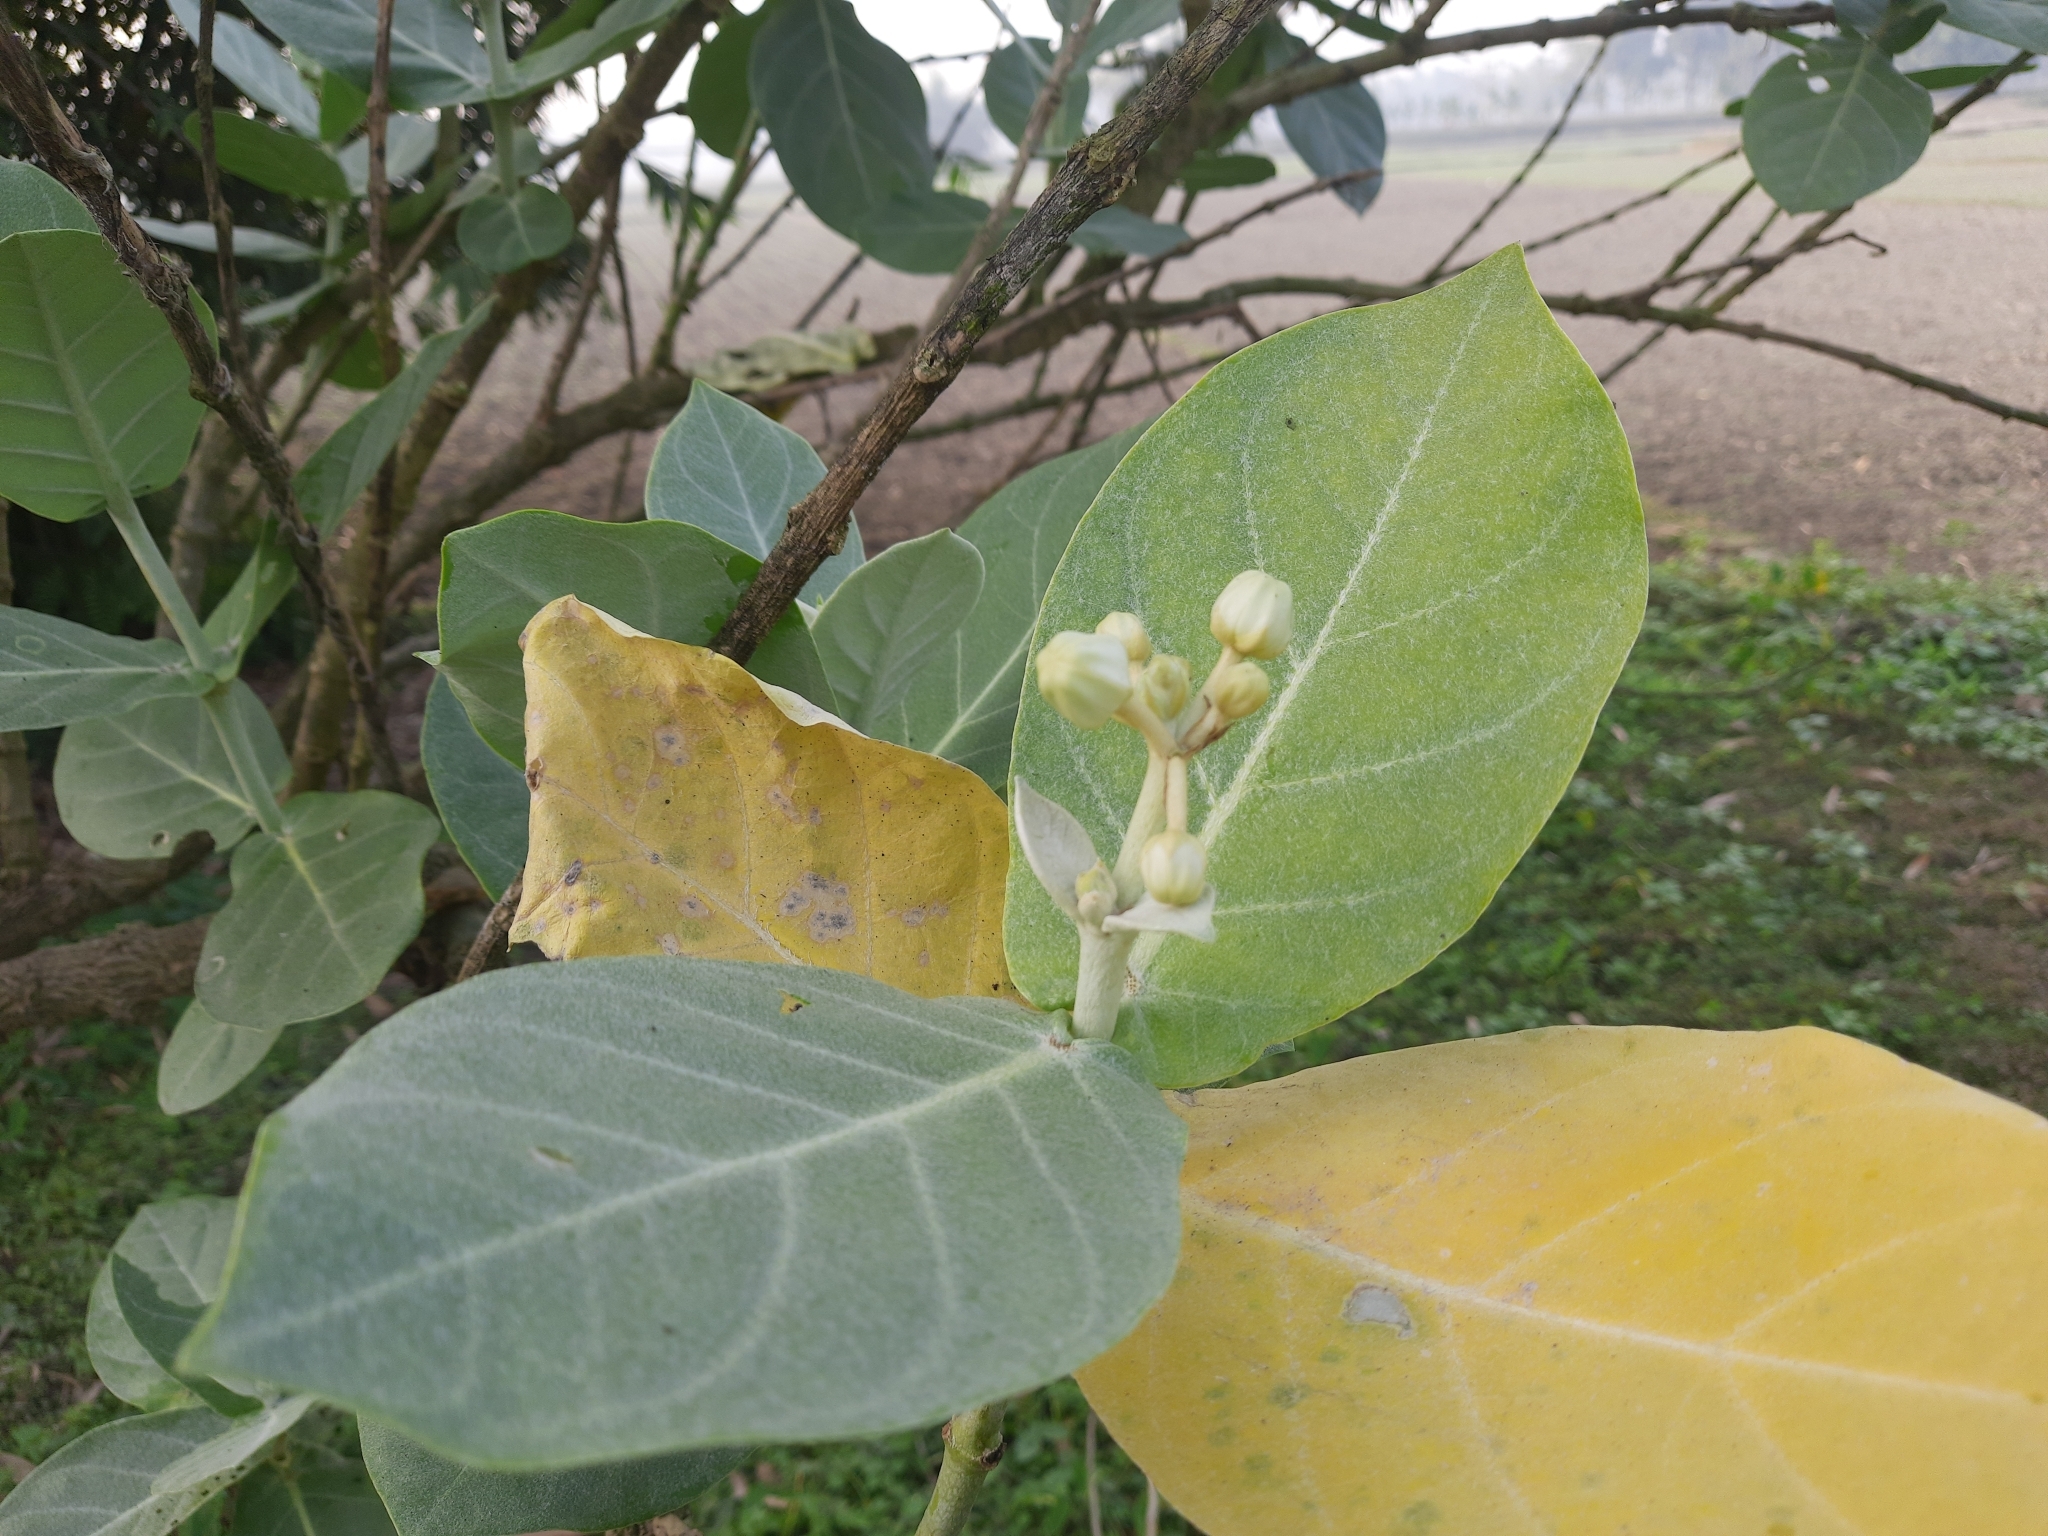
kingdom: Plantae
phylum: Tracheophyta
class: Magnoliopsida
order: Gentianales
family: Apocynaceae
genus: Calotropis
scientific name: Calotropis gigantea
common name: Crown flower
